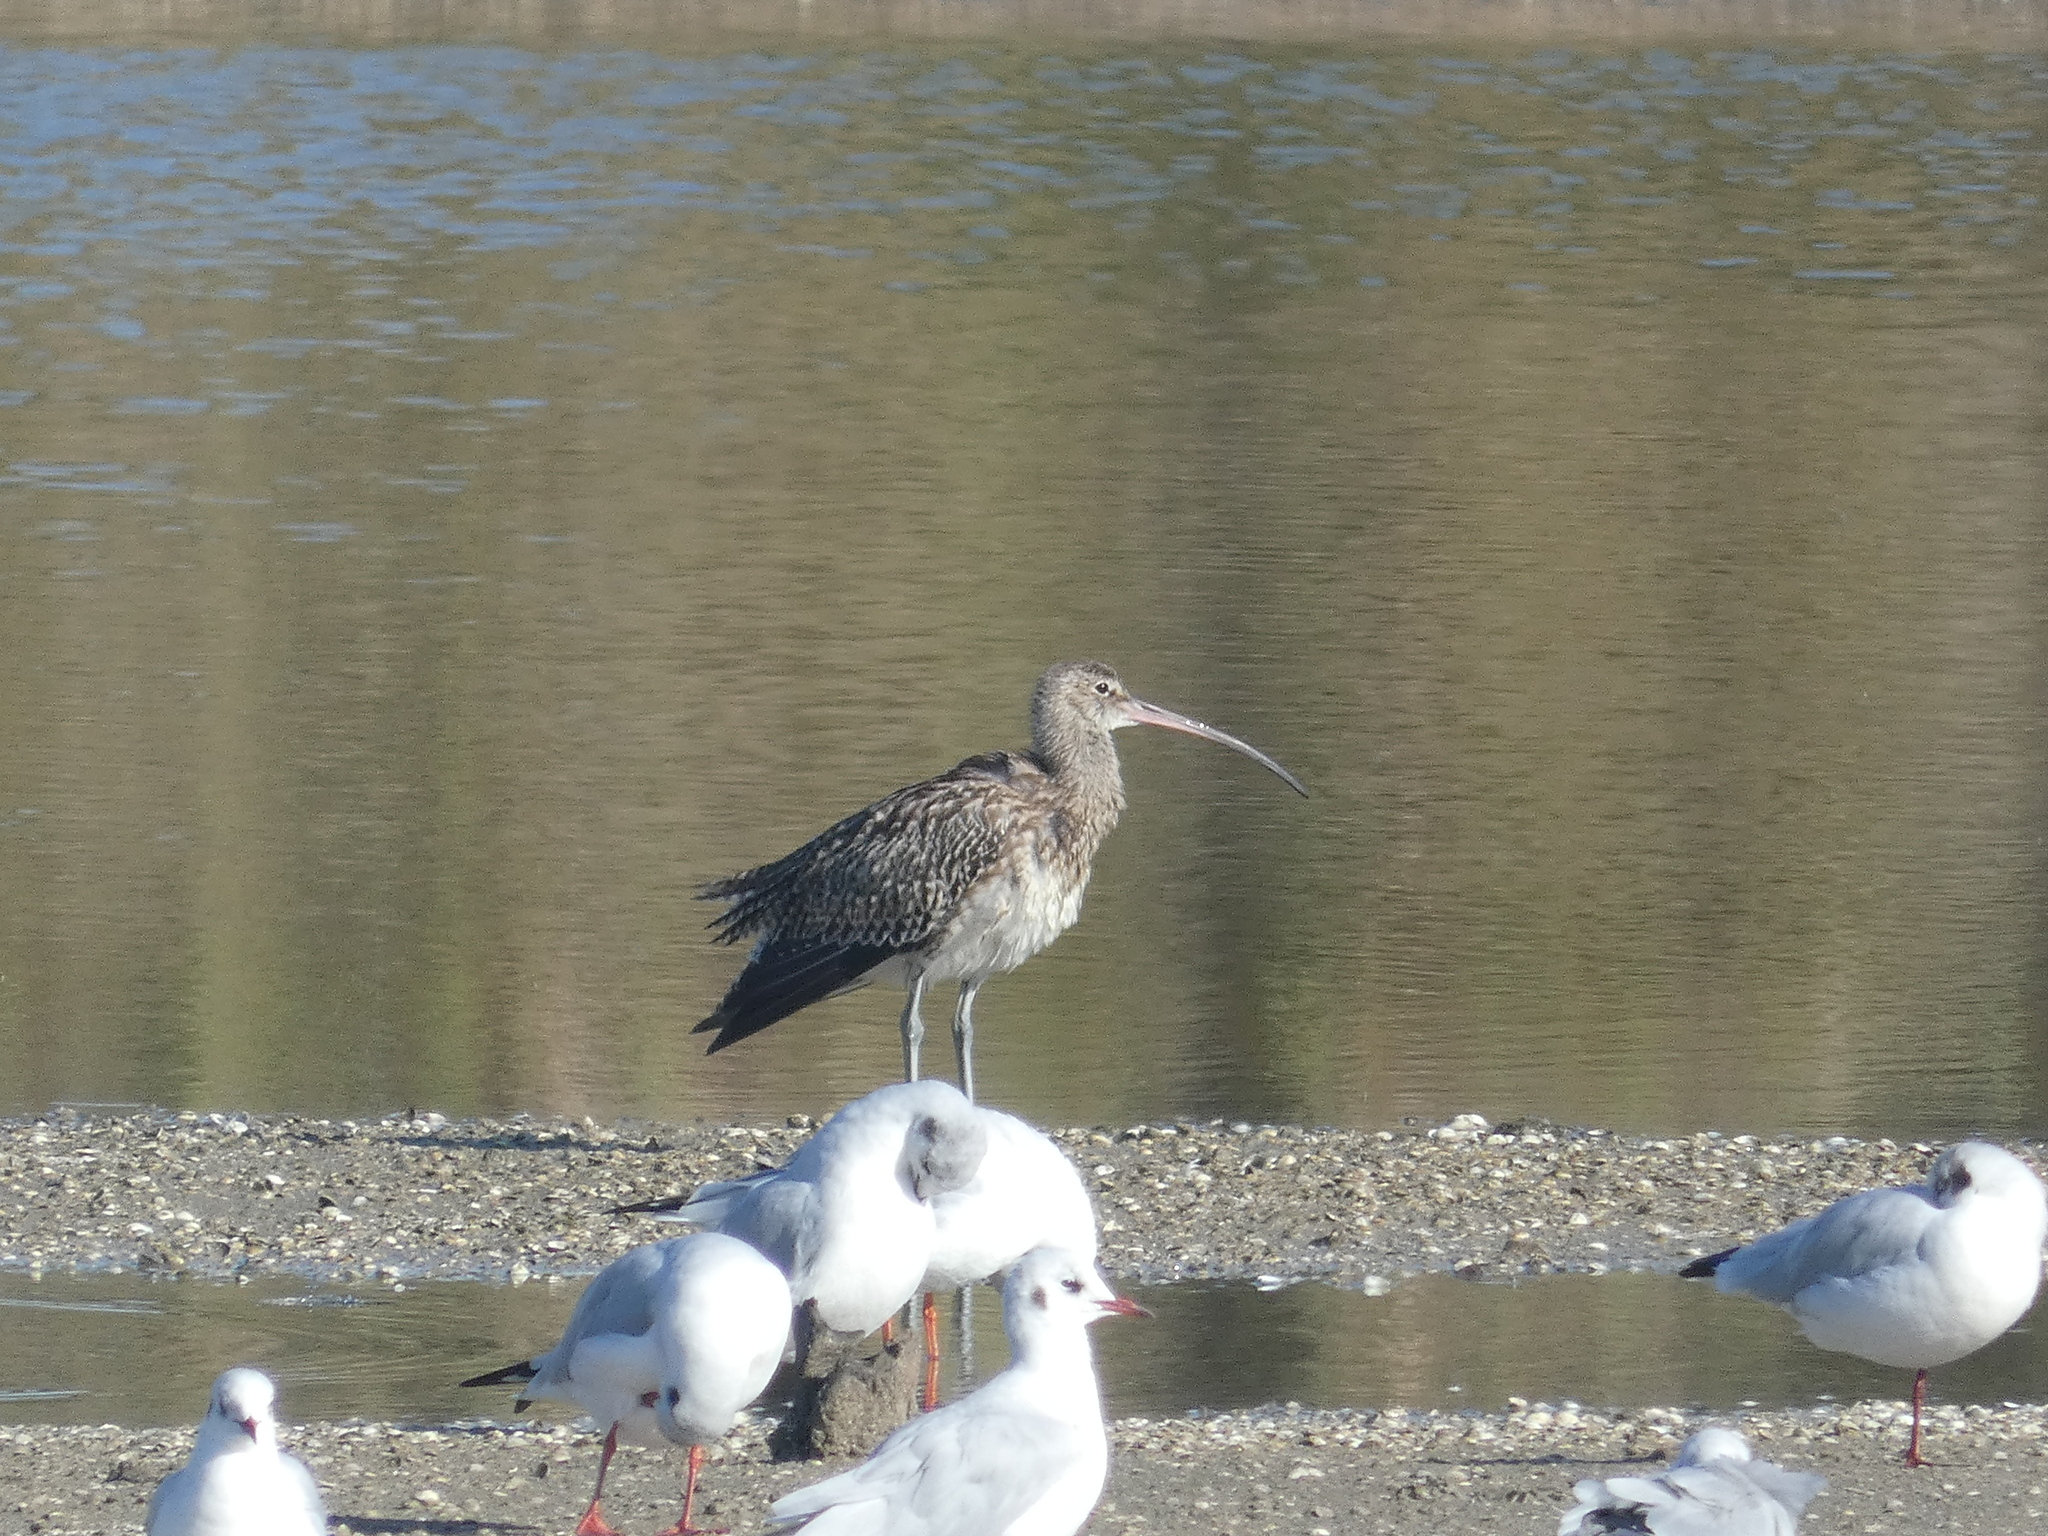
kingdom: Animalia
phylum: Chordata
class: Aves
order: Charadriiformes
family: Scolopacidae
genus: Numenius
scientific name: Numenius arquata
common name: Eurasian curlew
